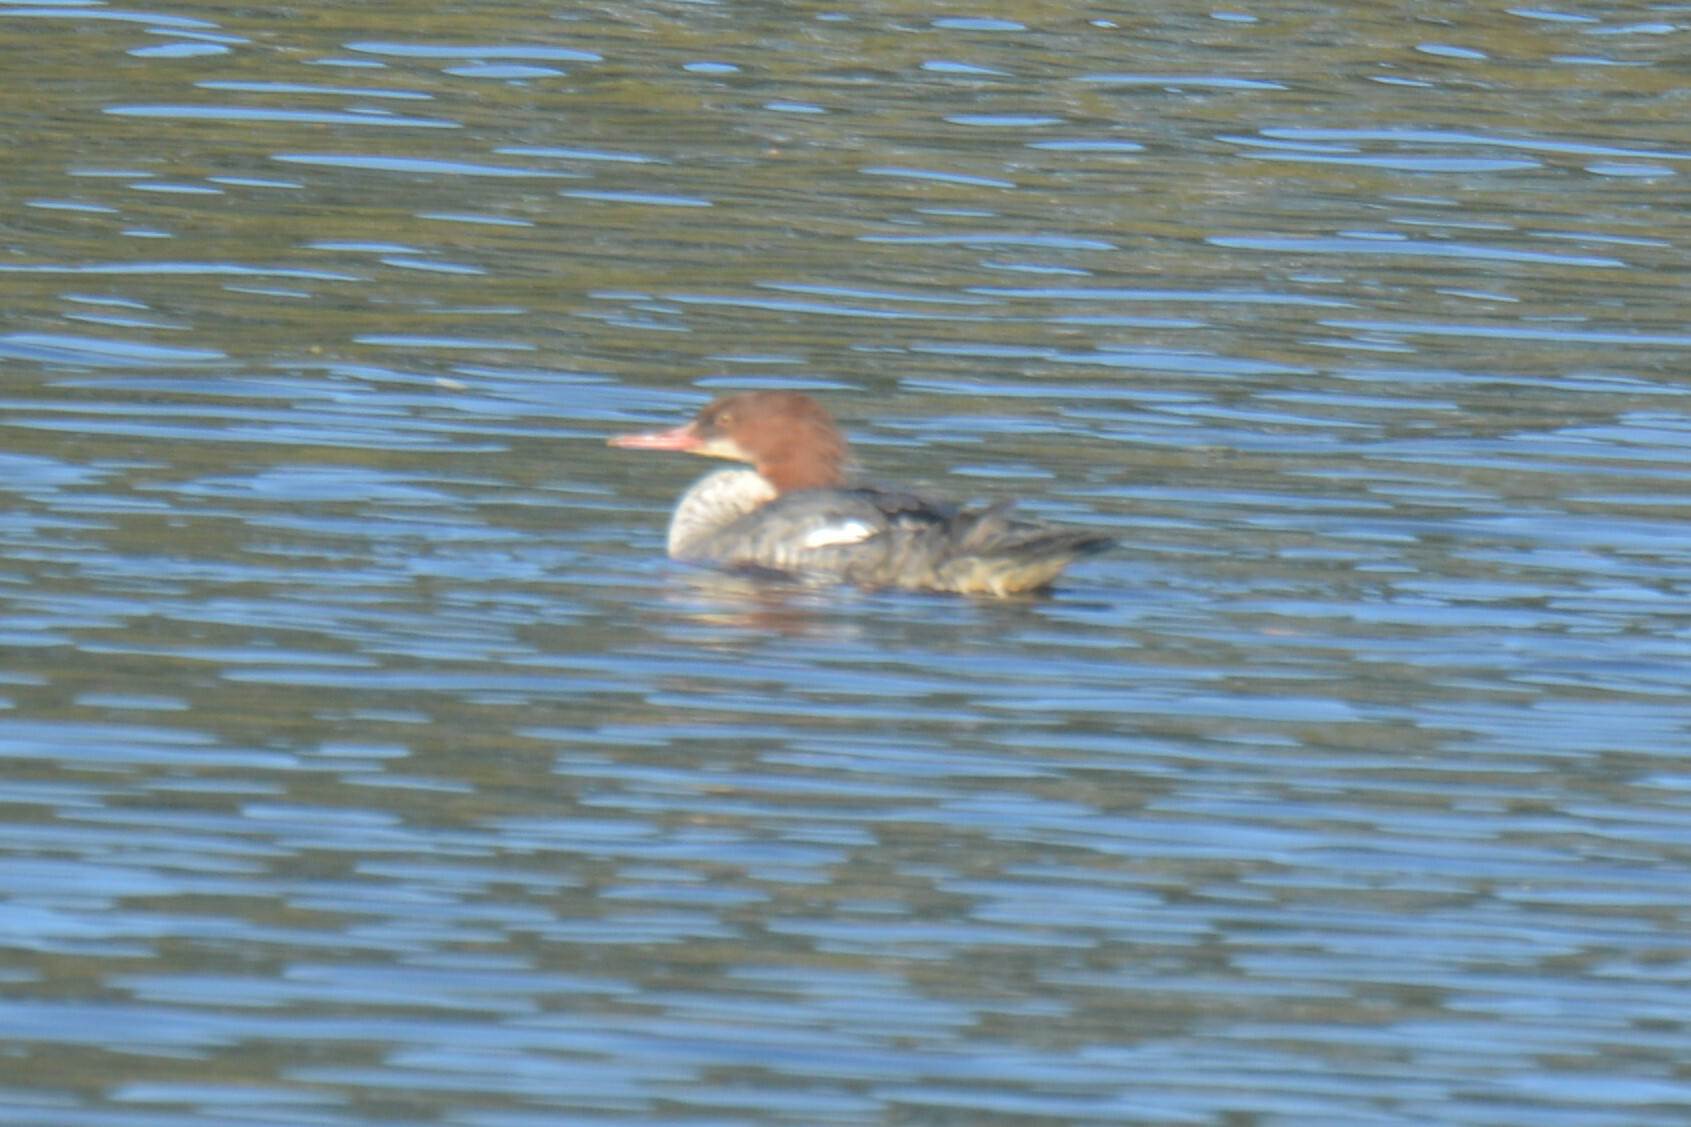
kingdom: Animalia
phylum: Chordata
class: Aves
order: Anseriformes
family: Anatidae
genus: Mergus
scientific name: Mergus merganser
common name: Common merganser
